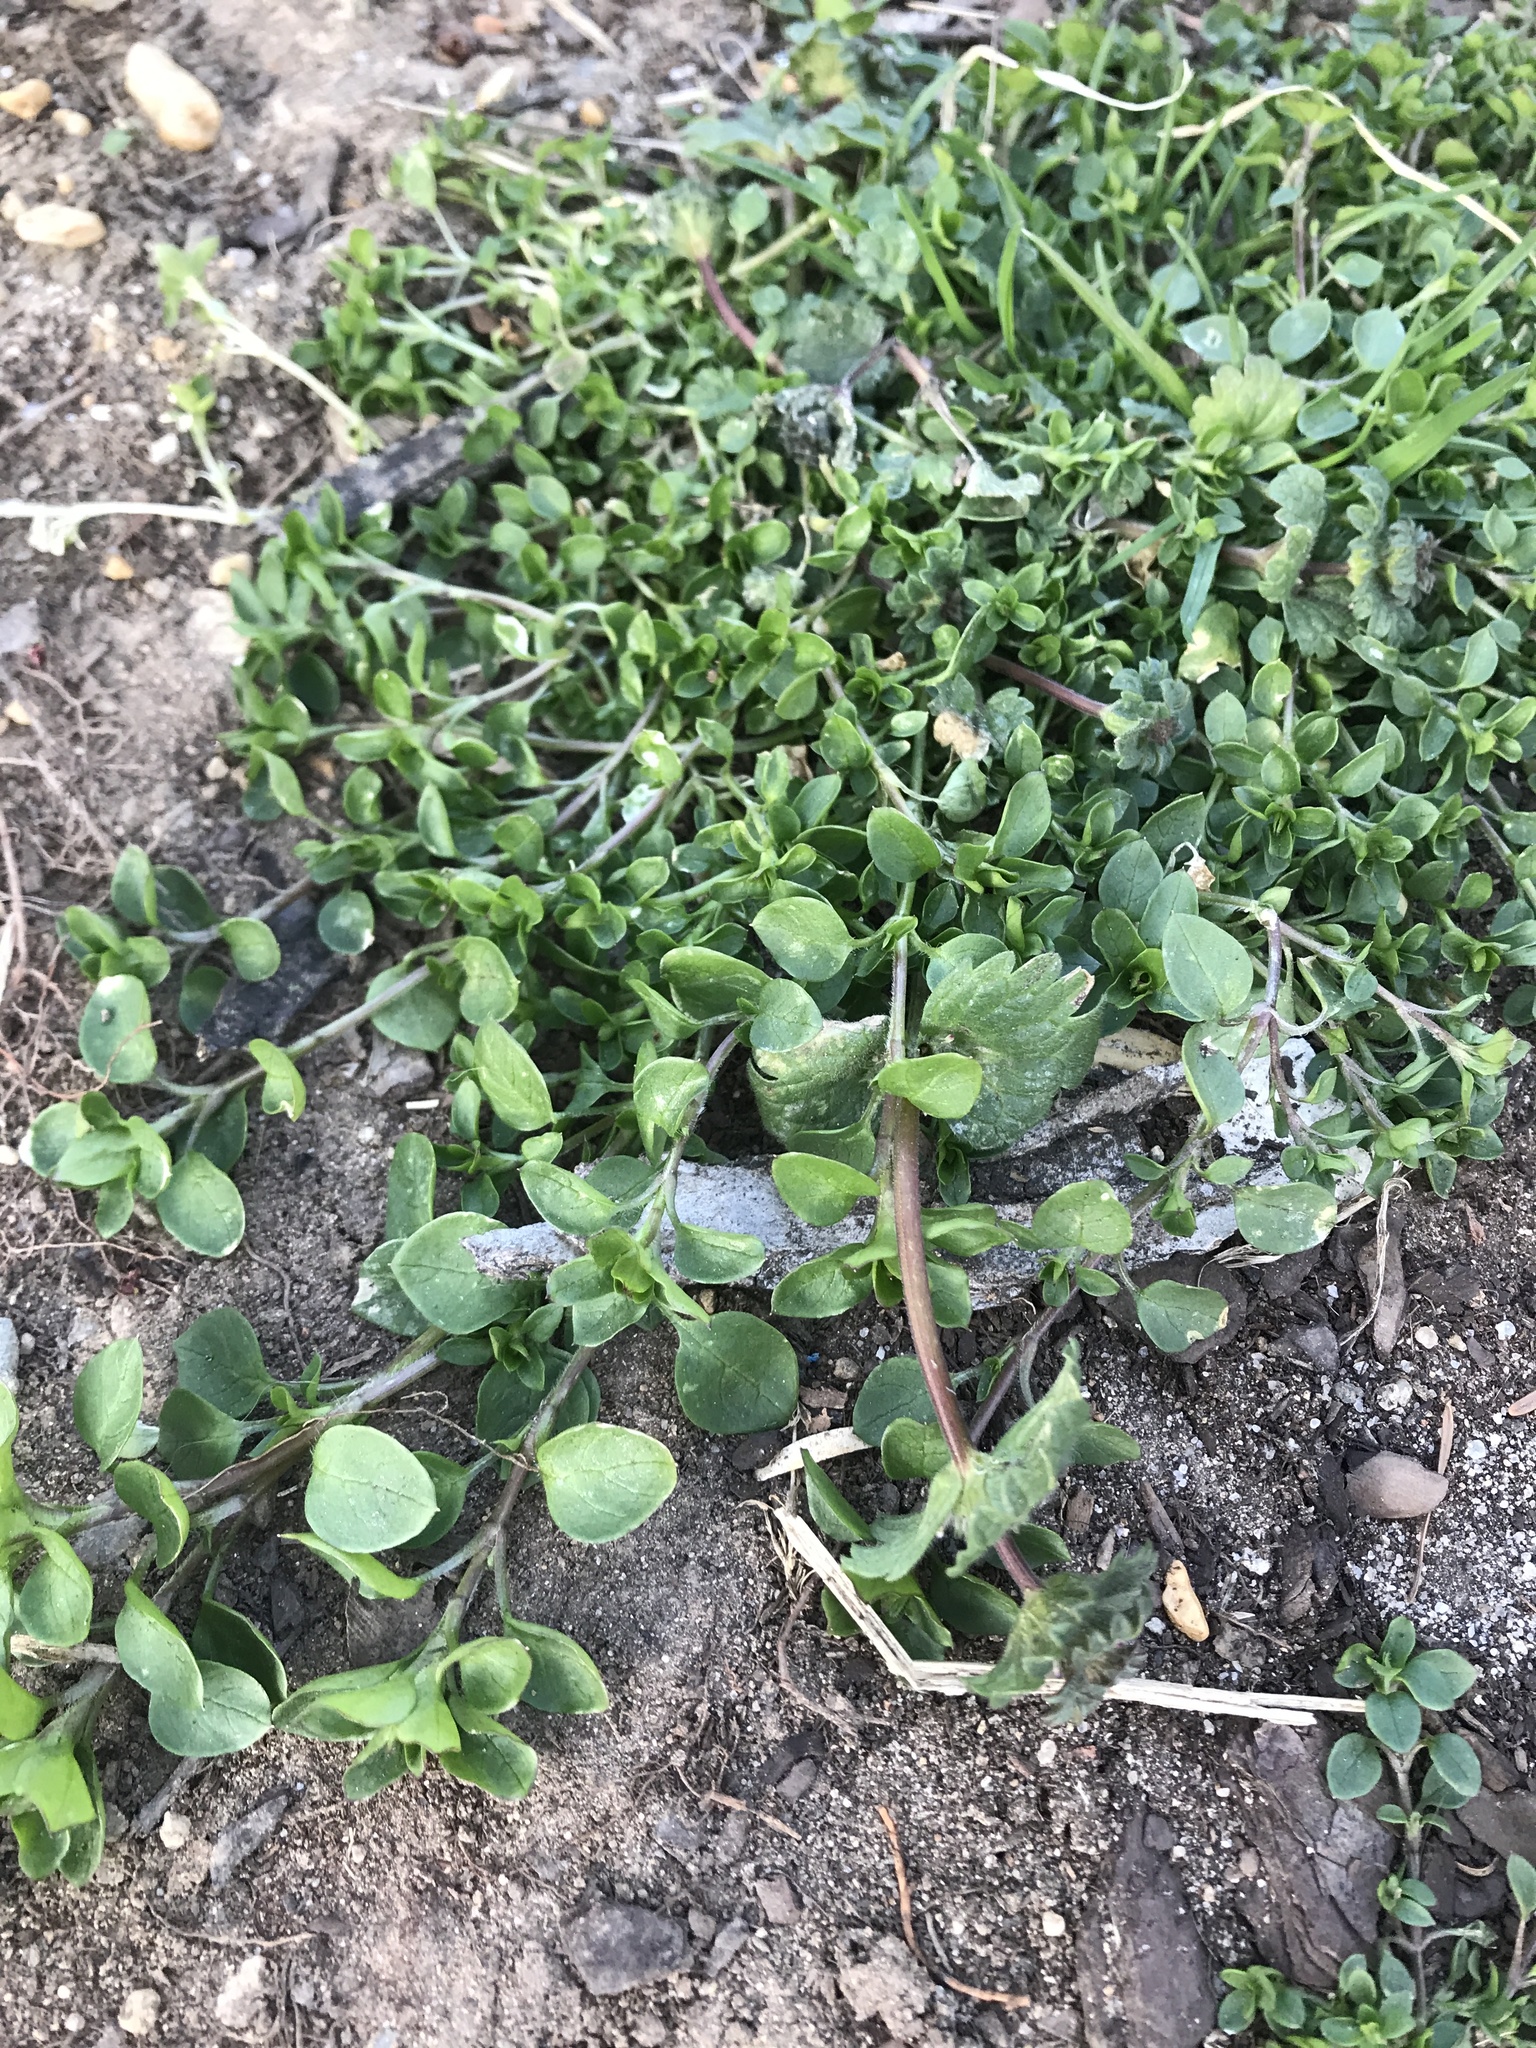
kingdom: Plantae
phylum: Tracheophyta
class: Magnoliopsida
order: Caryophyllales
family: Caryophyllaceae
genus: Stellaria
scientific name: Stellaria media
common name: Common chickweed
